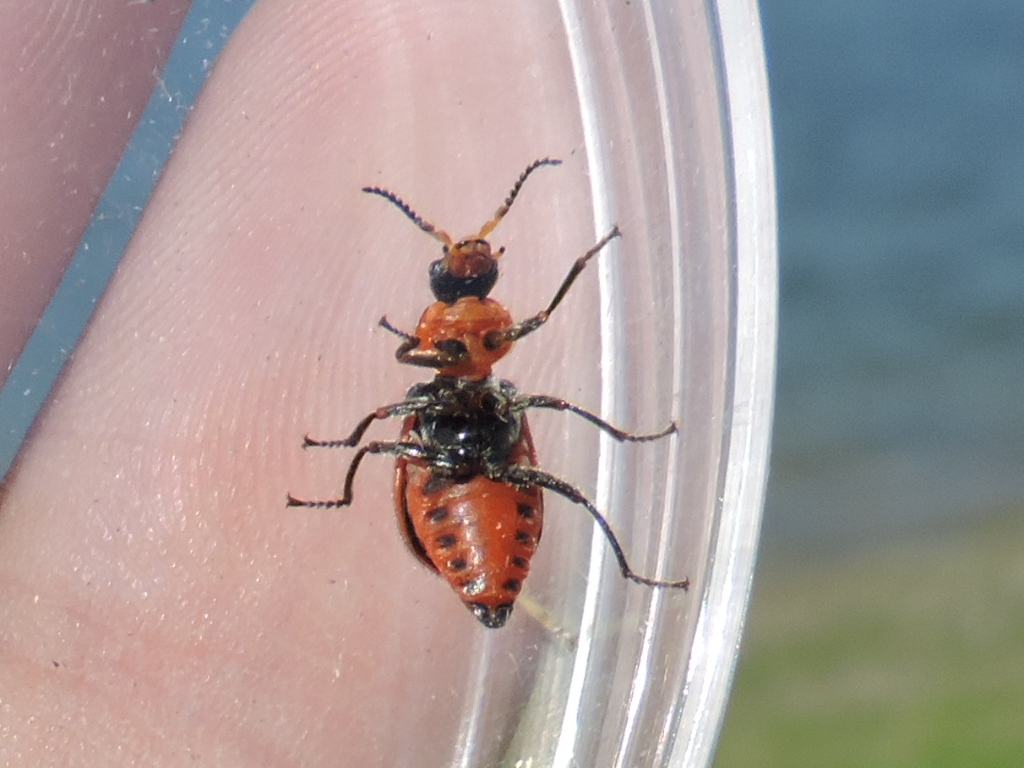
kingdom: Animalia
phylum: Arthropoda
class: Insecta
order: Coleoptera
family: Melyridae
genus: Collops
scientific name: Collops
